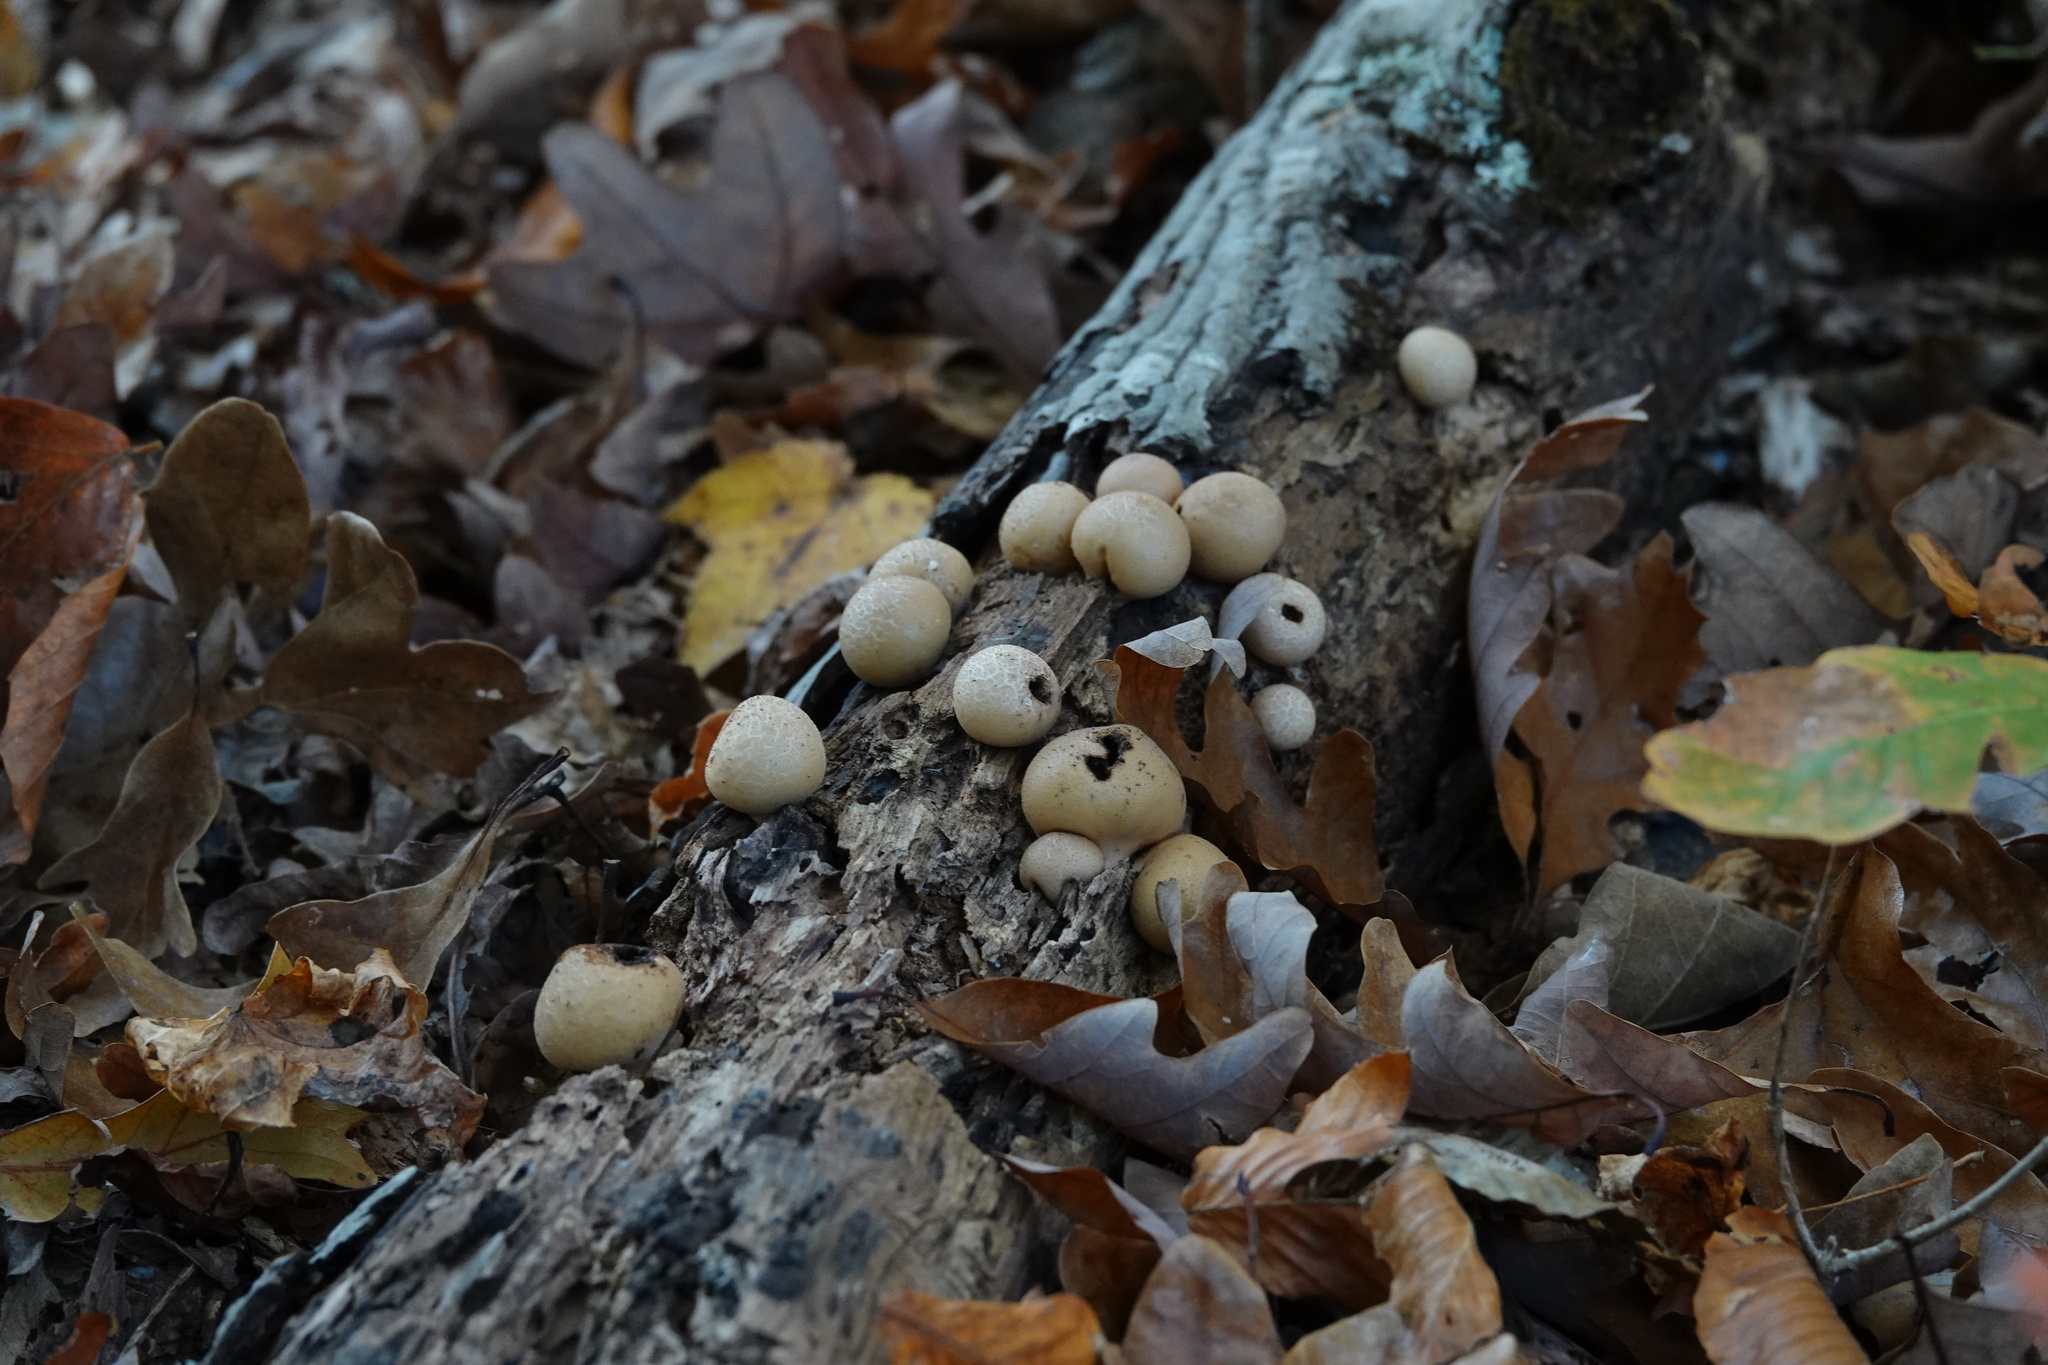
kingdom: Fungi
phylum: Basidiomycota
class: Agaricomycetes
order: Agaricales
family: Lycoperdaceae
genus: Apioperdon
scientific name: Apioperdon pyriforme
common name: Pear-shaped puffball
